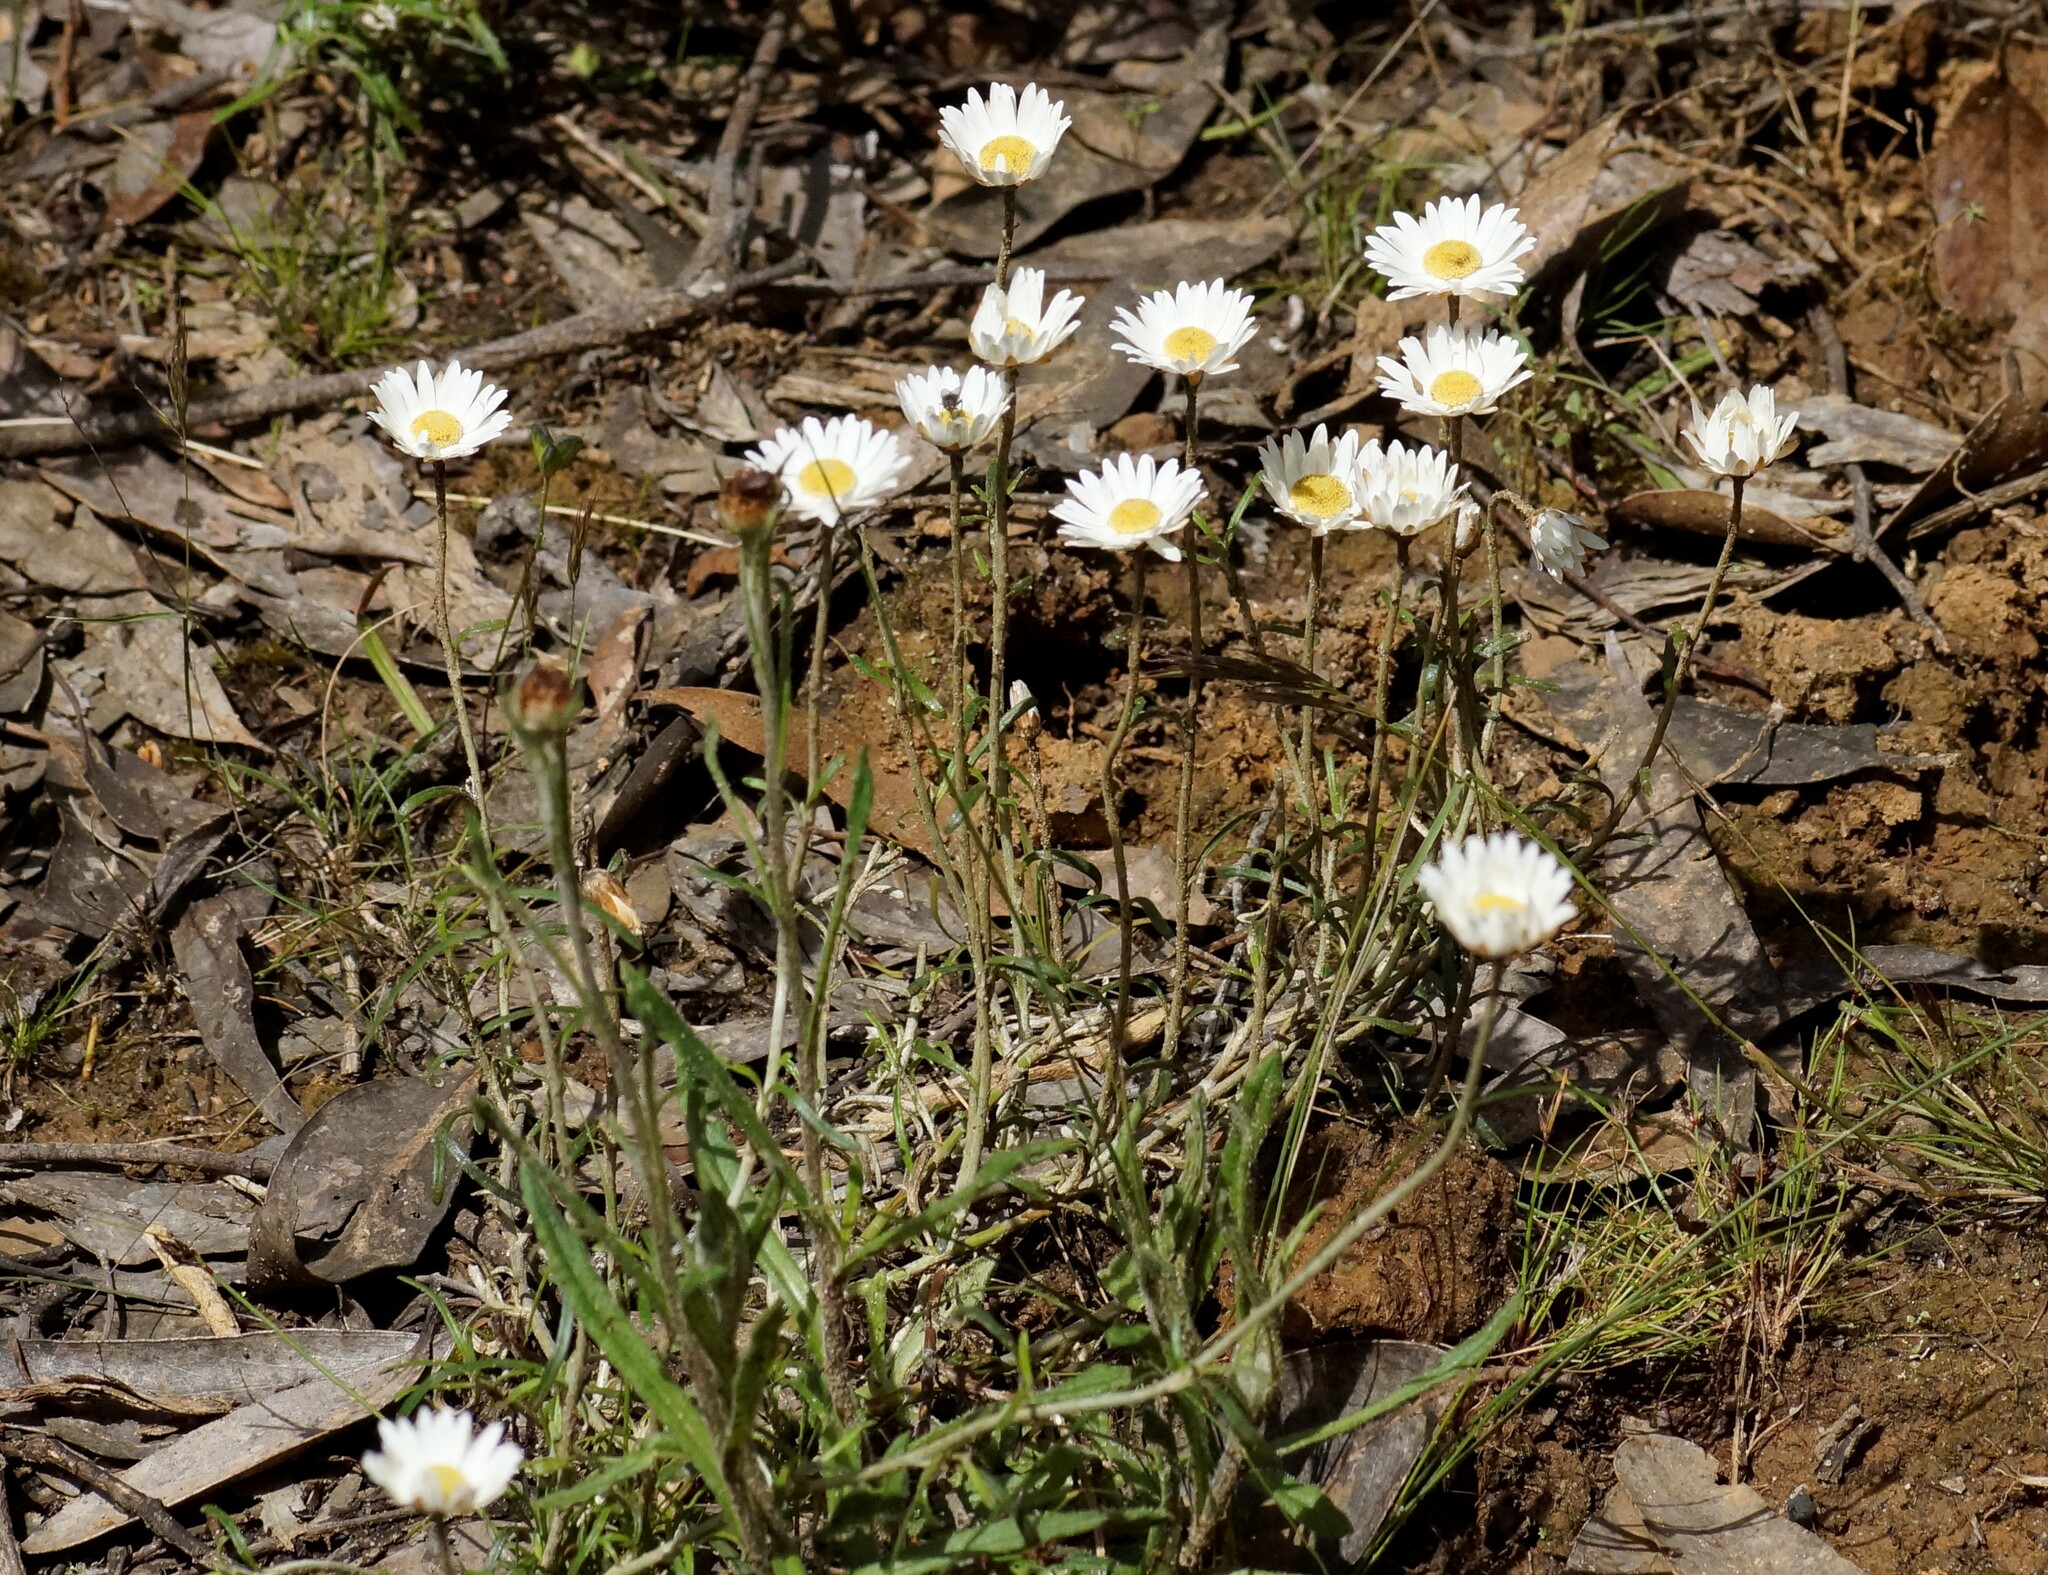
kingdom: Plantae
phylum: Tracheophyta
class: Magnoliopsida
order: Asterales
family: Asteraceae
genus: Argentipallium
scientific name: Argentipallium obtusifolium
